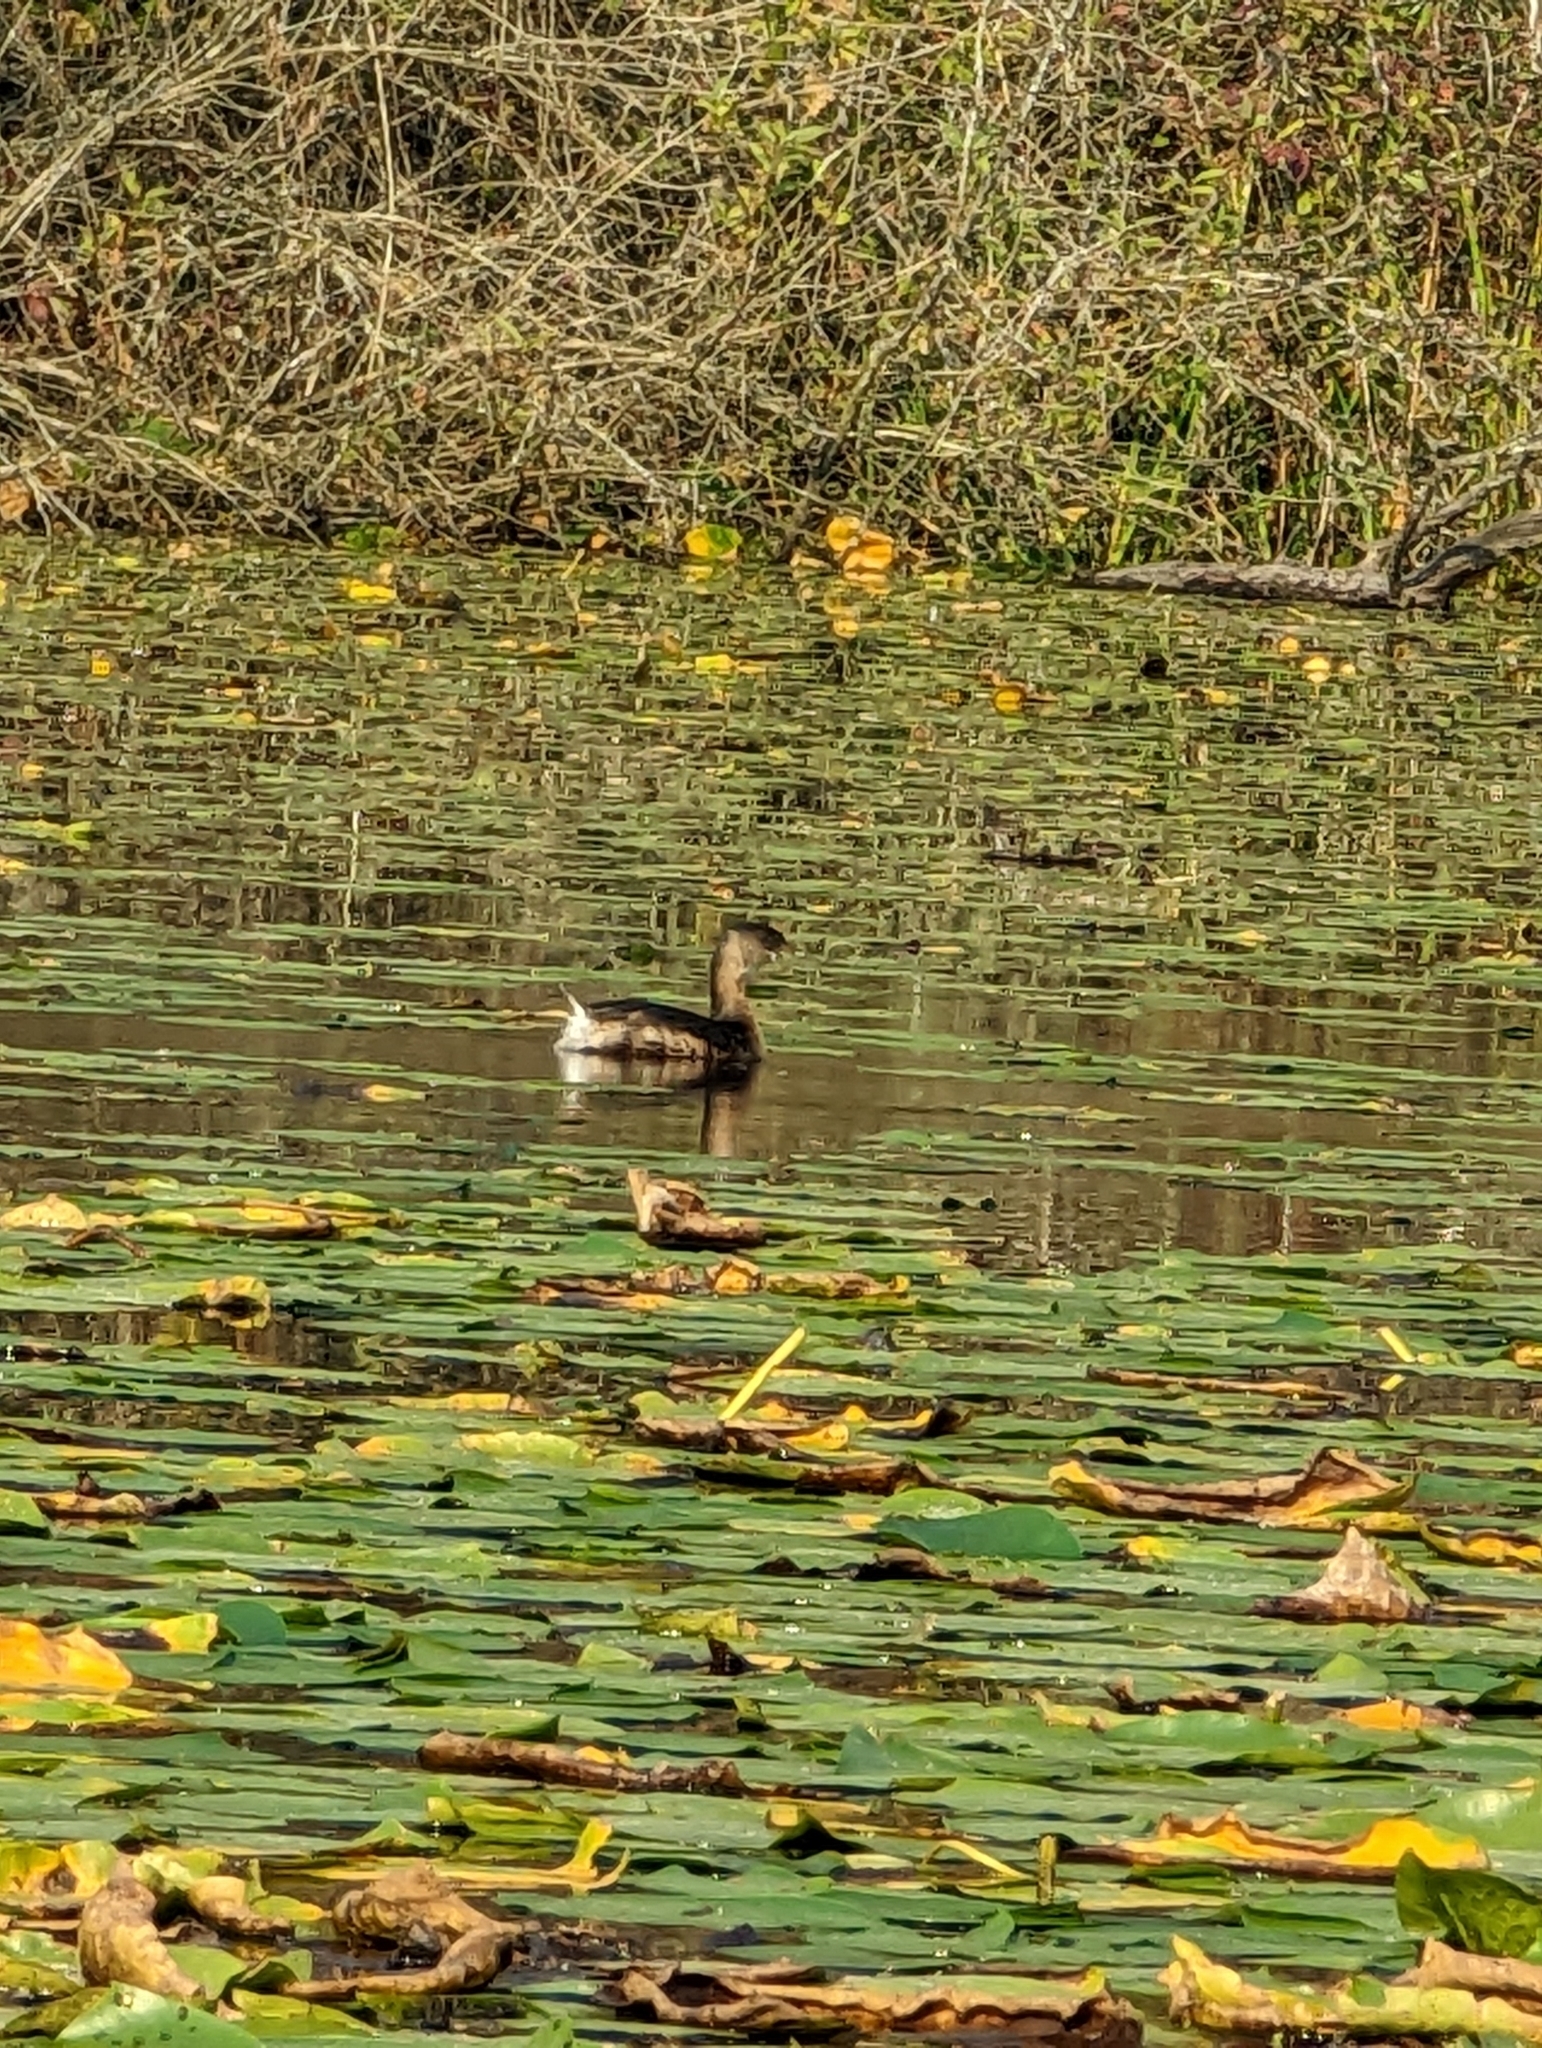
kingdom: Animalia
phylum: Chordata
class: Aves
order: Podicipediformes
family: Podicipedidae
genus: Podilymbus
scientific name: Podilymbus podiceps
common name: Pied-billed grebe
